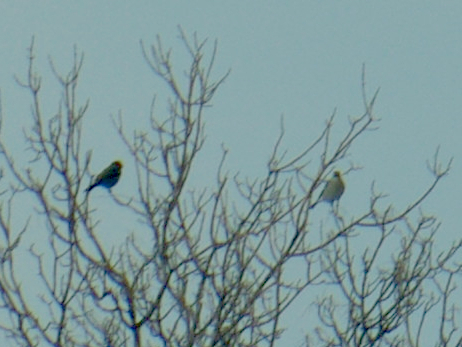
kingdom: Animalia
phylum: Chordata
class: Aves
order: Passeriformes
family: Fringillidae
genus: Pinicola
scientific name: Pinicola enucleator
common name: Pine grosbeak
